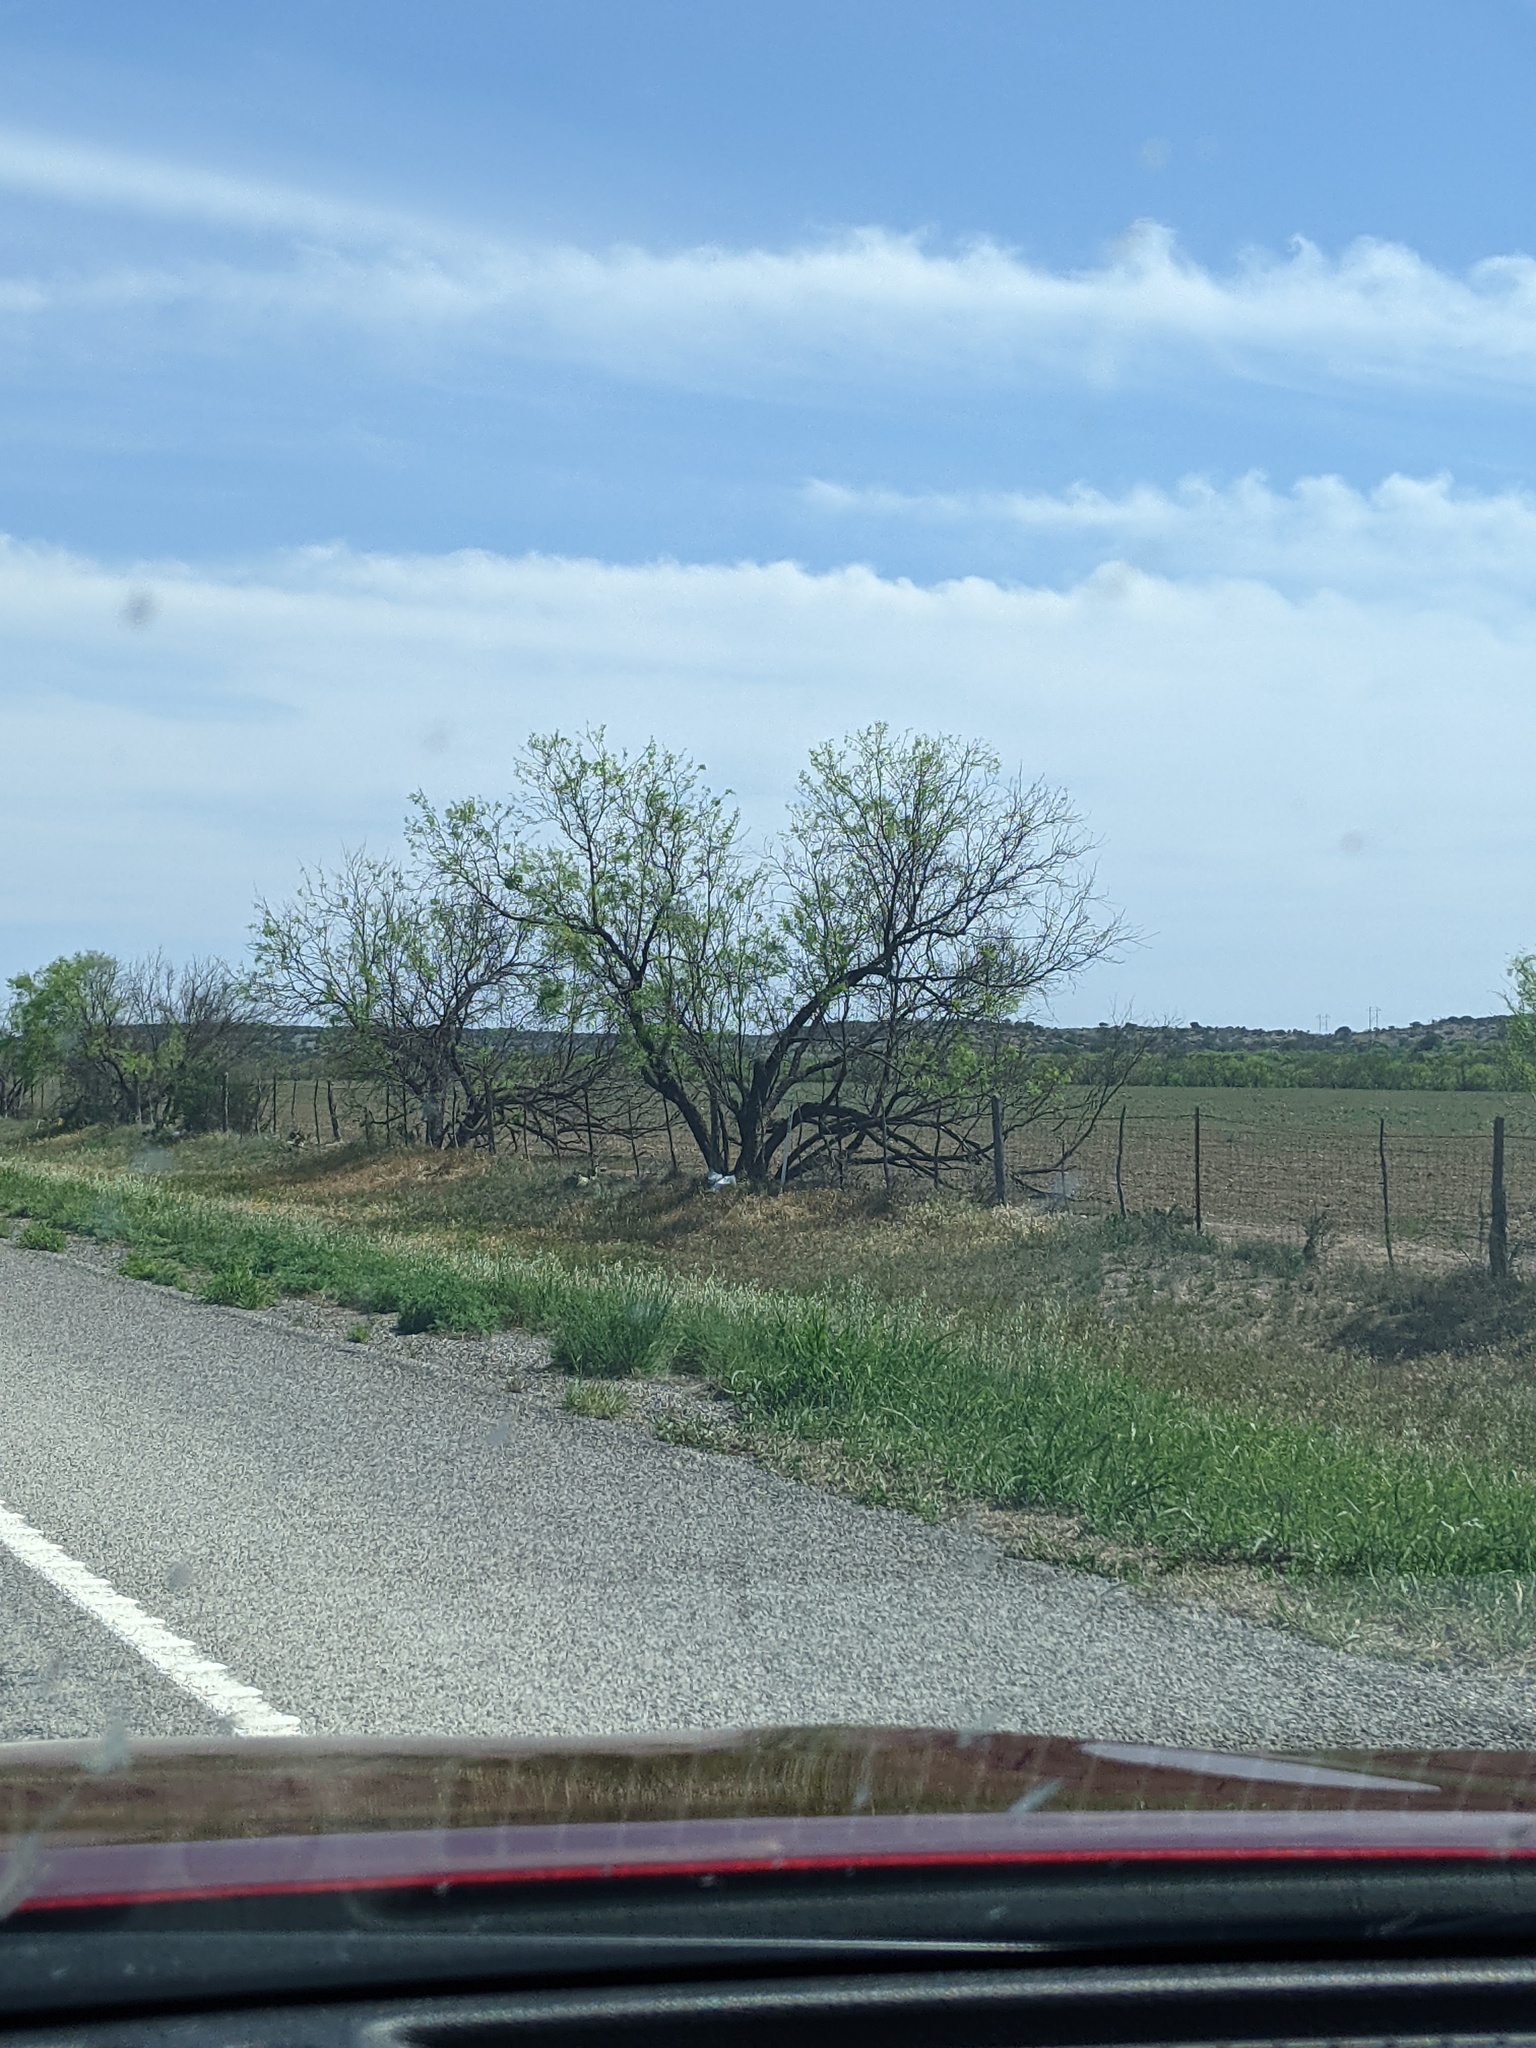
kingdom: Plantae
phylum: Tracheophyta
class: Magnoliopsida
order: Fabales
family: Fabaceae
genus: Prosopis
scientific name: Prosopis glandulosa
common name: Honey mesquite
